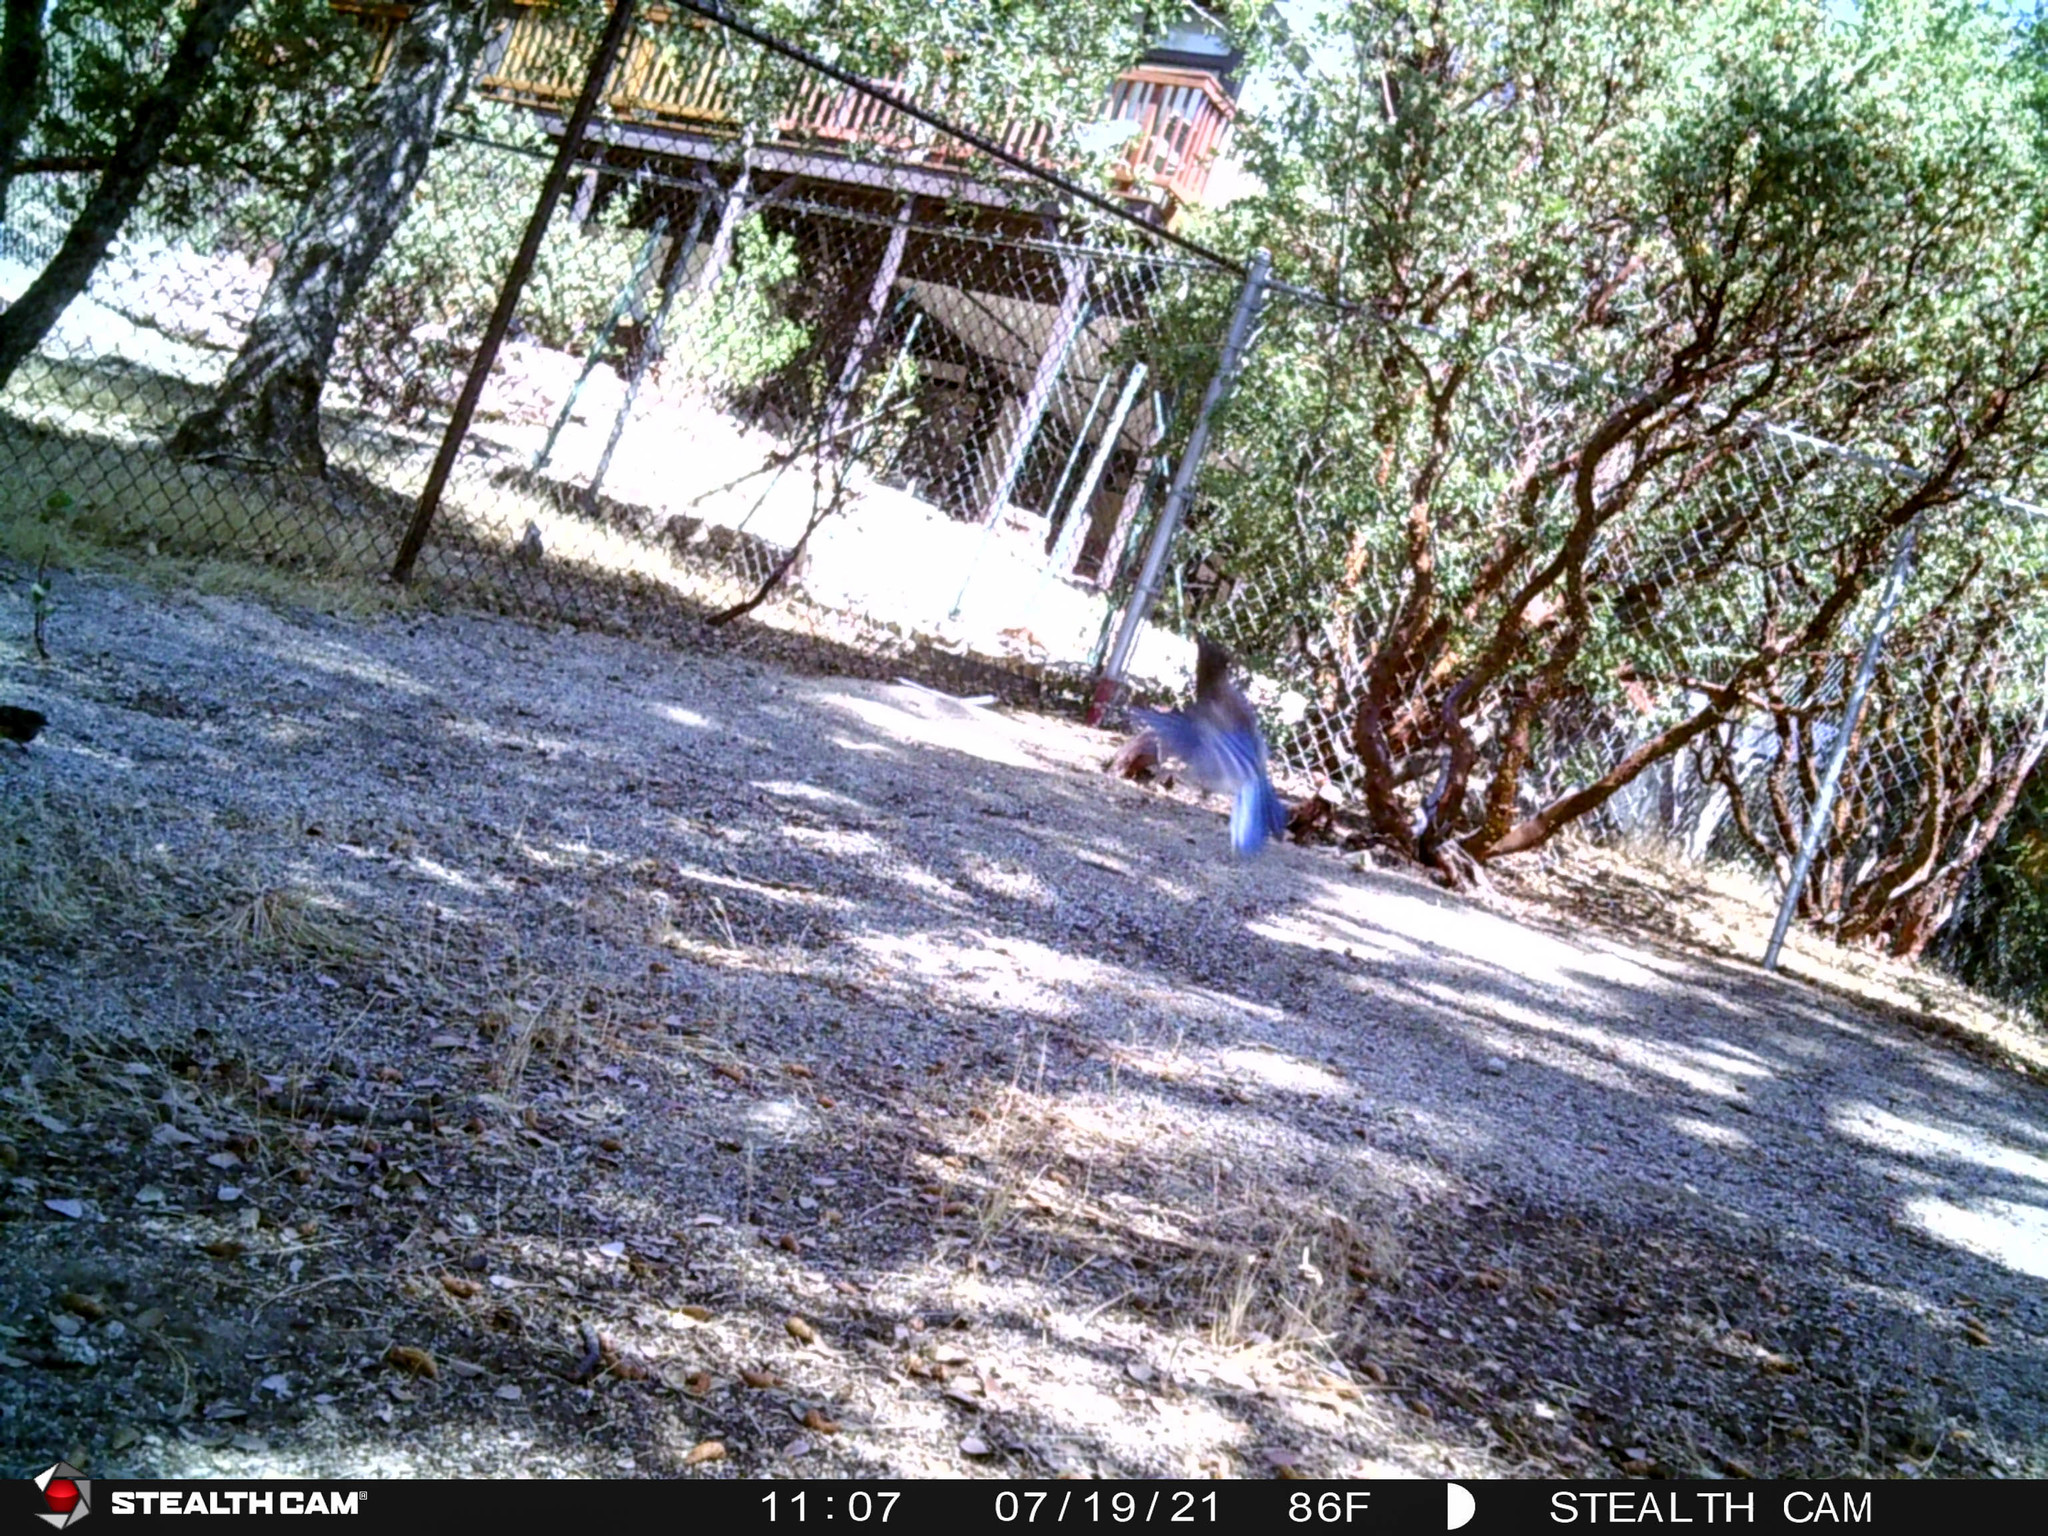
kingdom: Animalia
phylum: Chordata
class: Aves
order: Passeriformes
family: Corvidae
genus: Cyanocitta
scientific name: Cyanocitta stelleri
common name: Steller's jay
